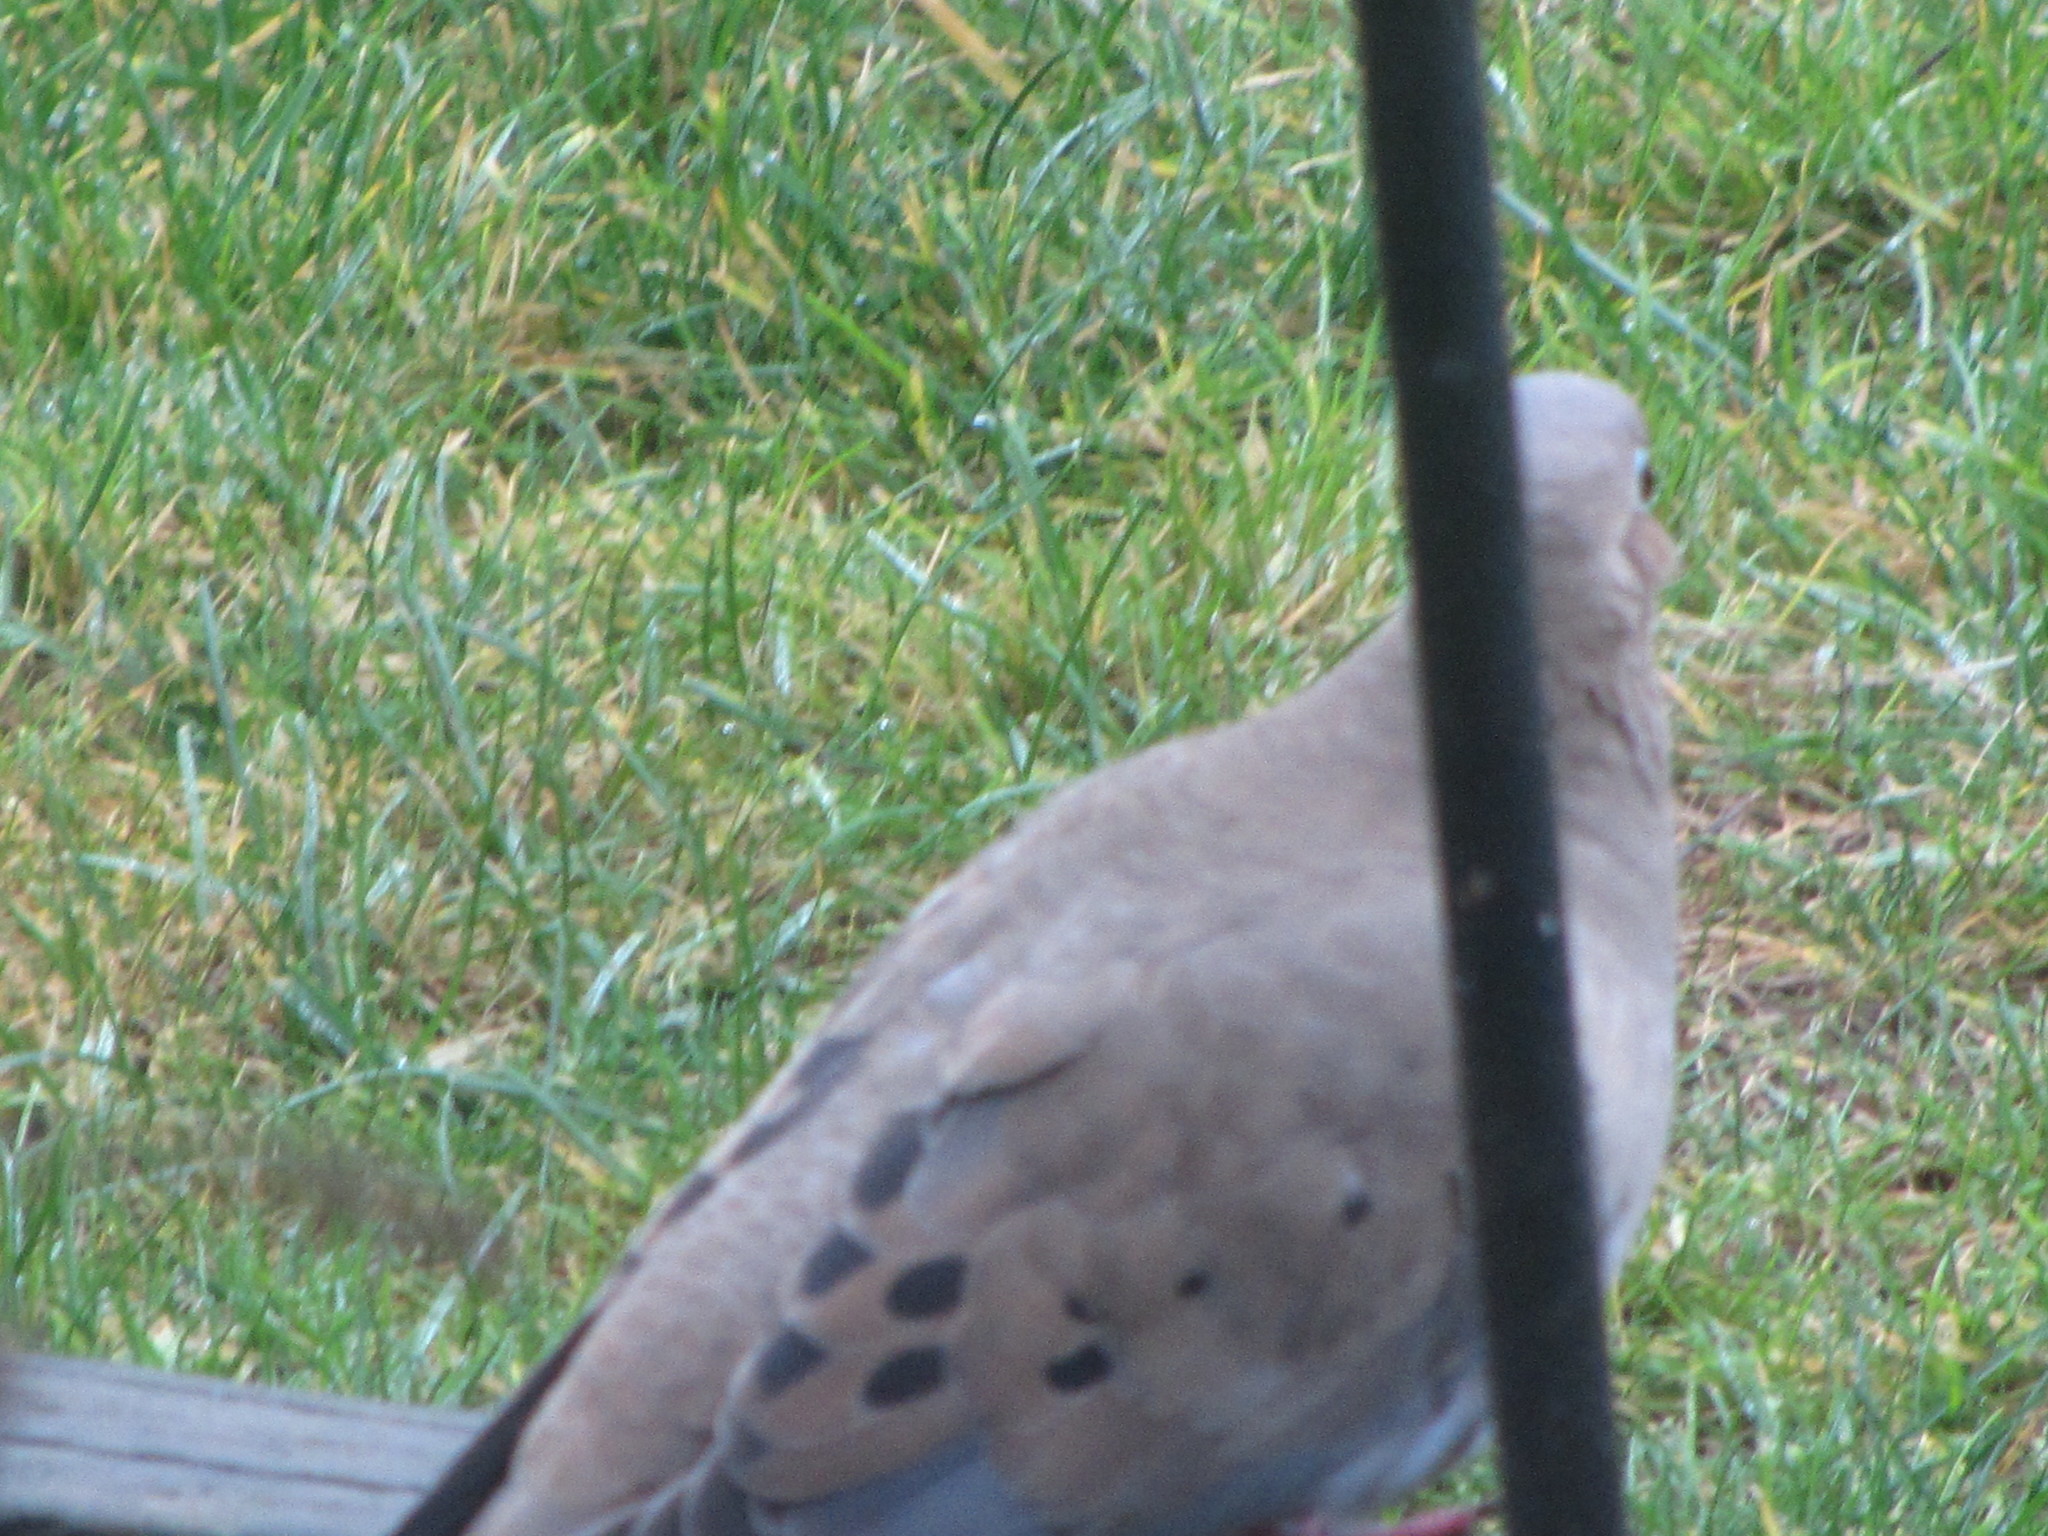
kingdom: Animalia
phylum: Chordata
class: Aves
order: Columbiformes
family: Columbidae
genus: Zenaida
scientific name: Zenaida macroura
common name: Mourning dove
